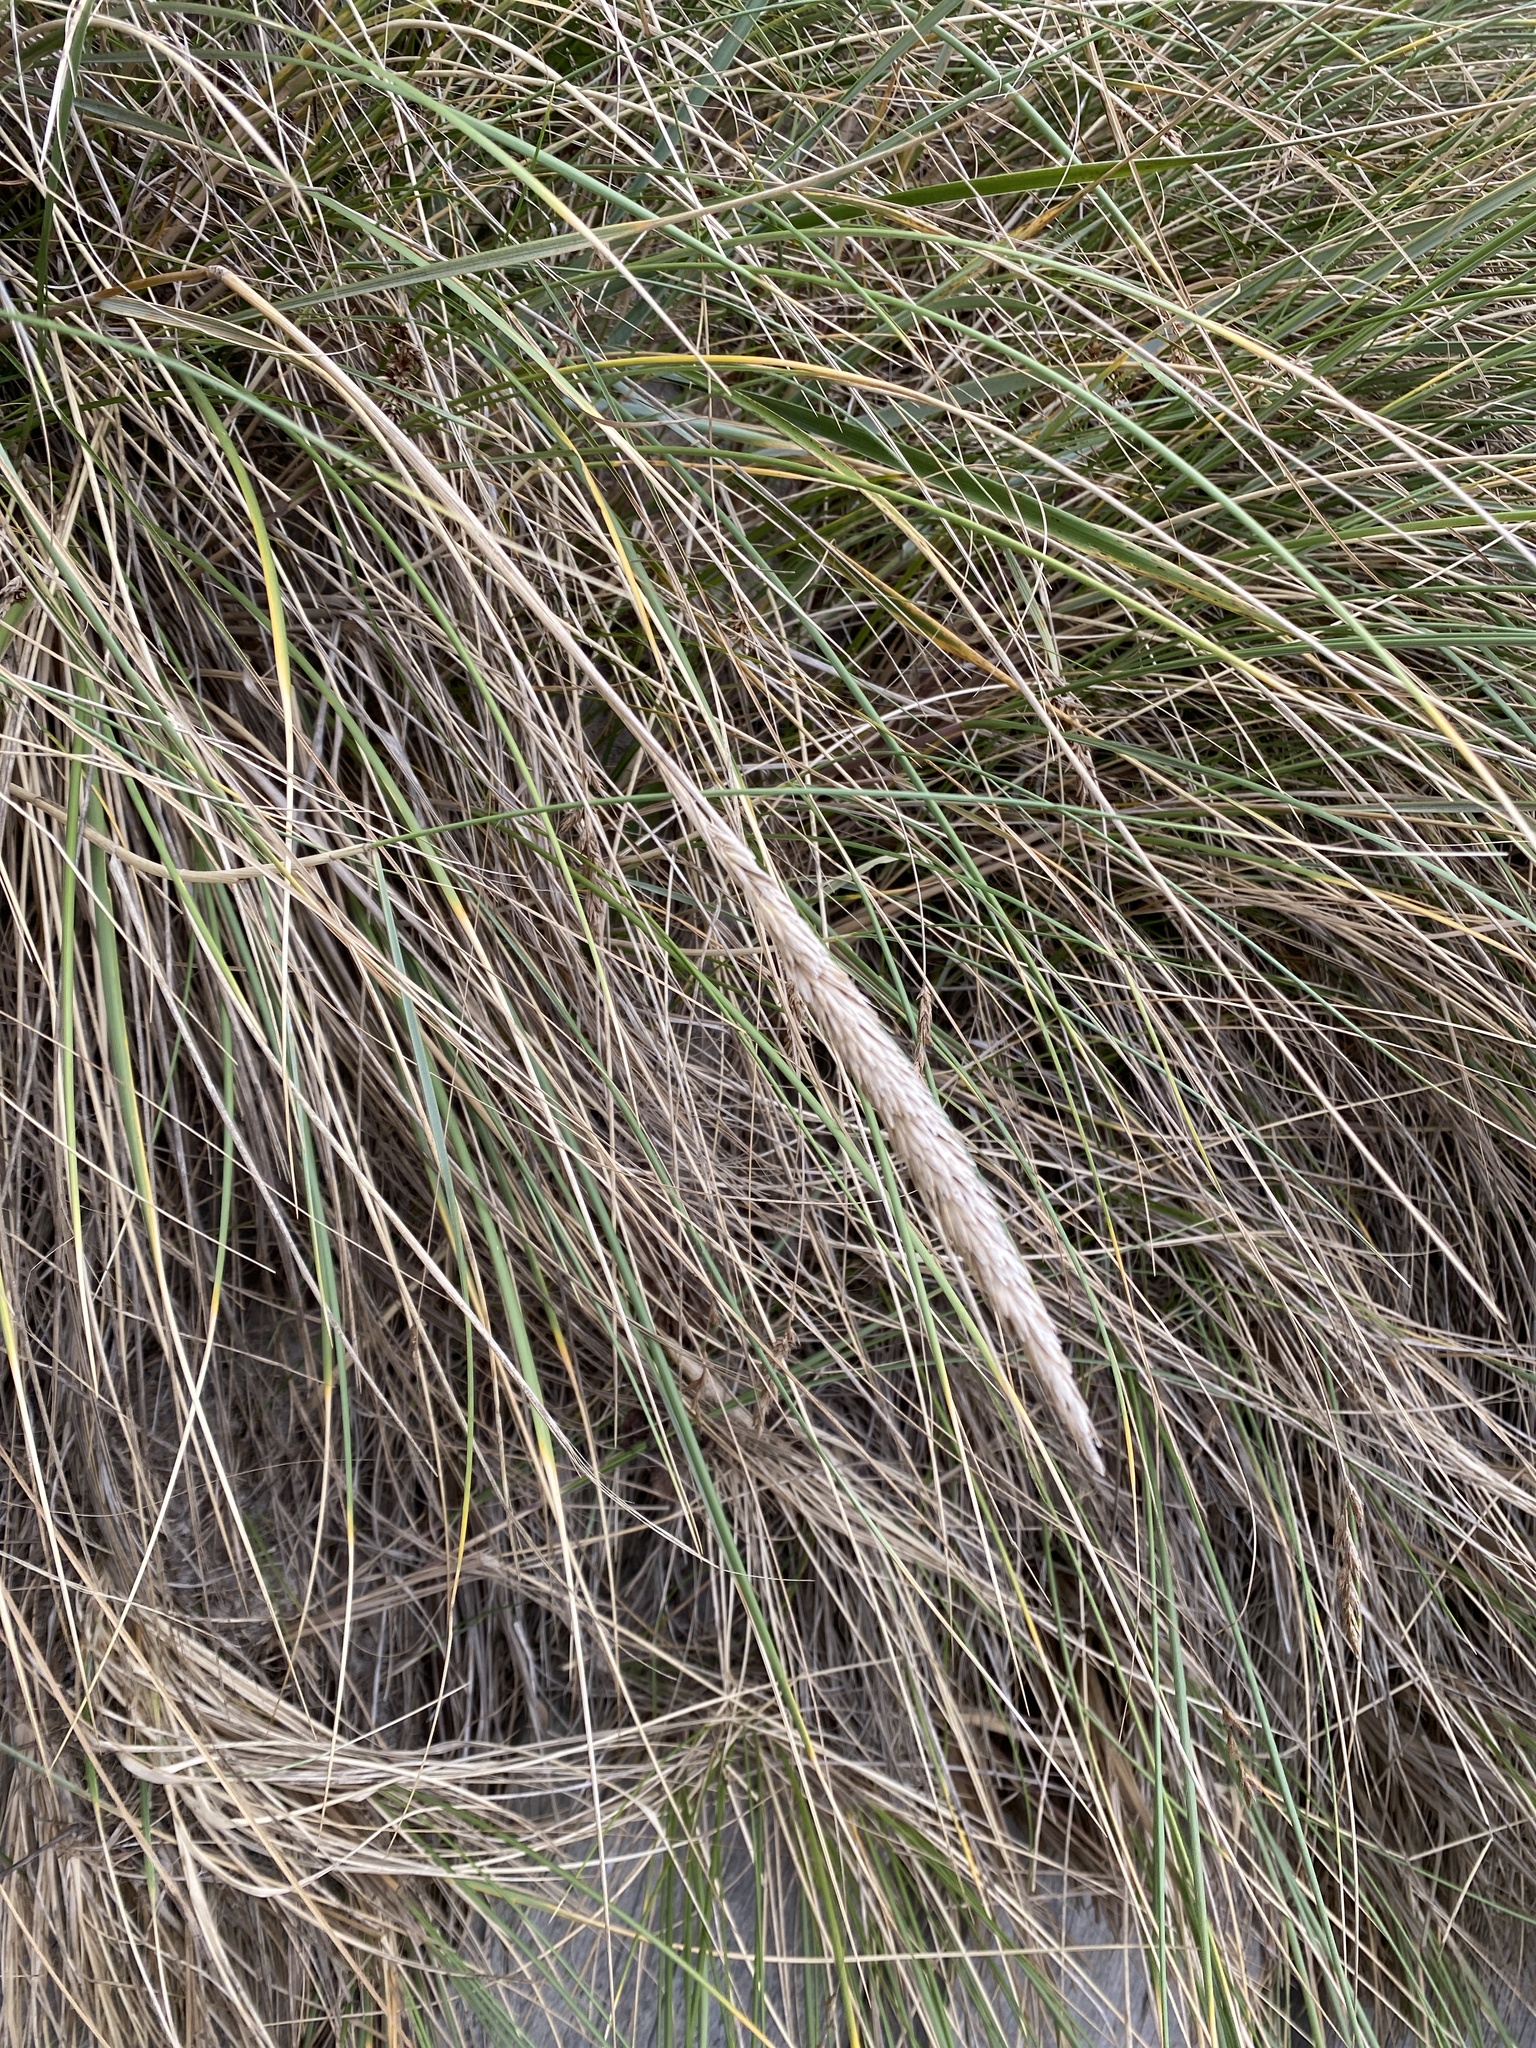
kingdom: Plantae
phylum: Tracheophyta
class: Liliopsida
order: Poales
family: Poaceae
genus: Calamagrostis
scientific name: Calamagrostis arenaria
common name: European beachgrass
